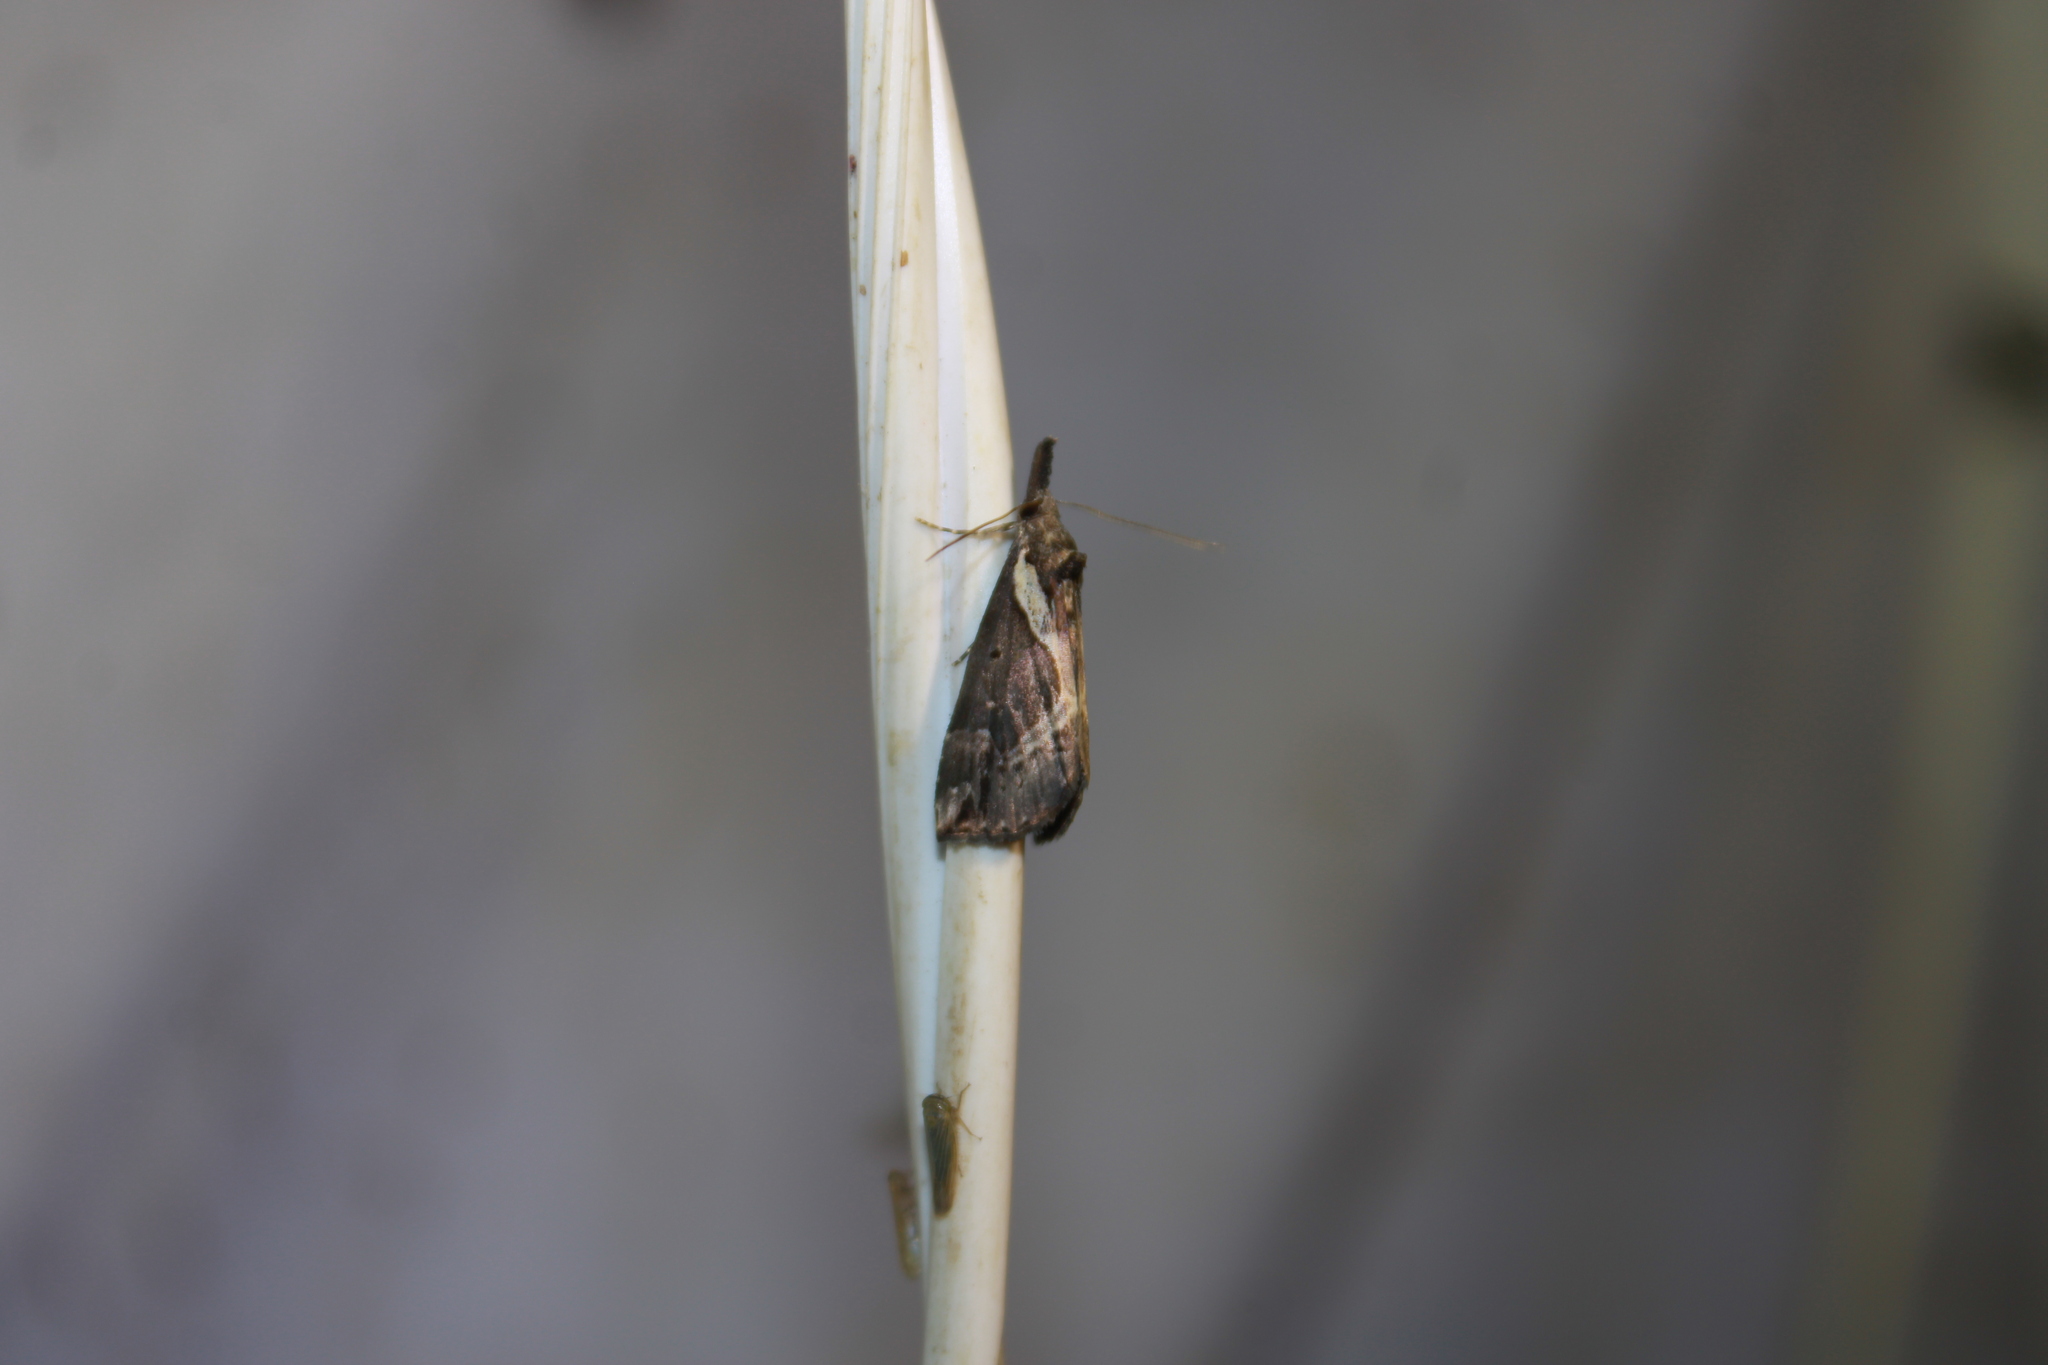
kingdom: Animalia
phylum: Arthropoda
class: Insecta
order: Lepidoptera
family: Erebidae
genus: Hypena
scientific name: Hypena ramstadtii
